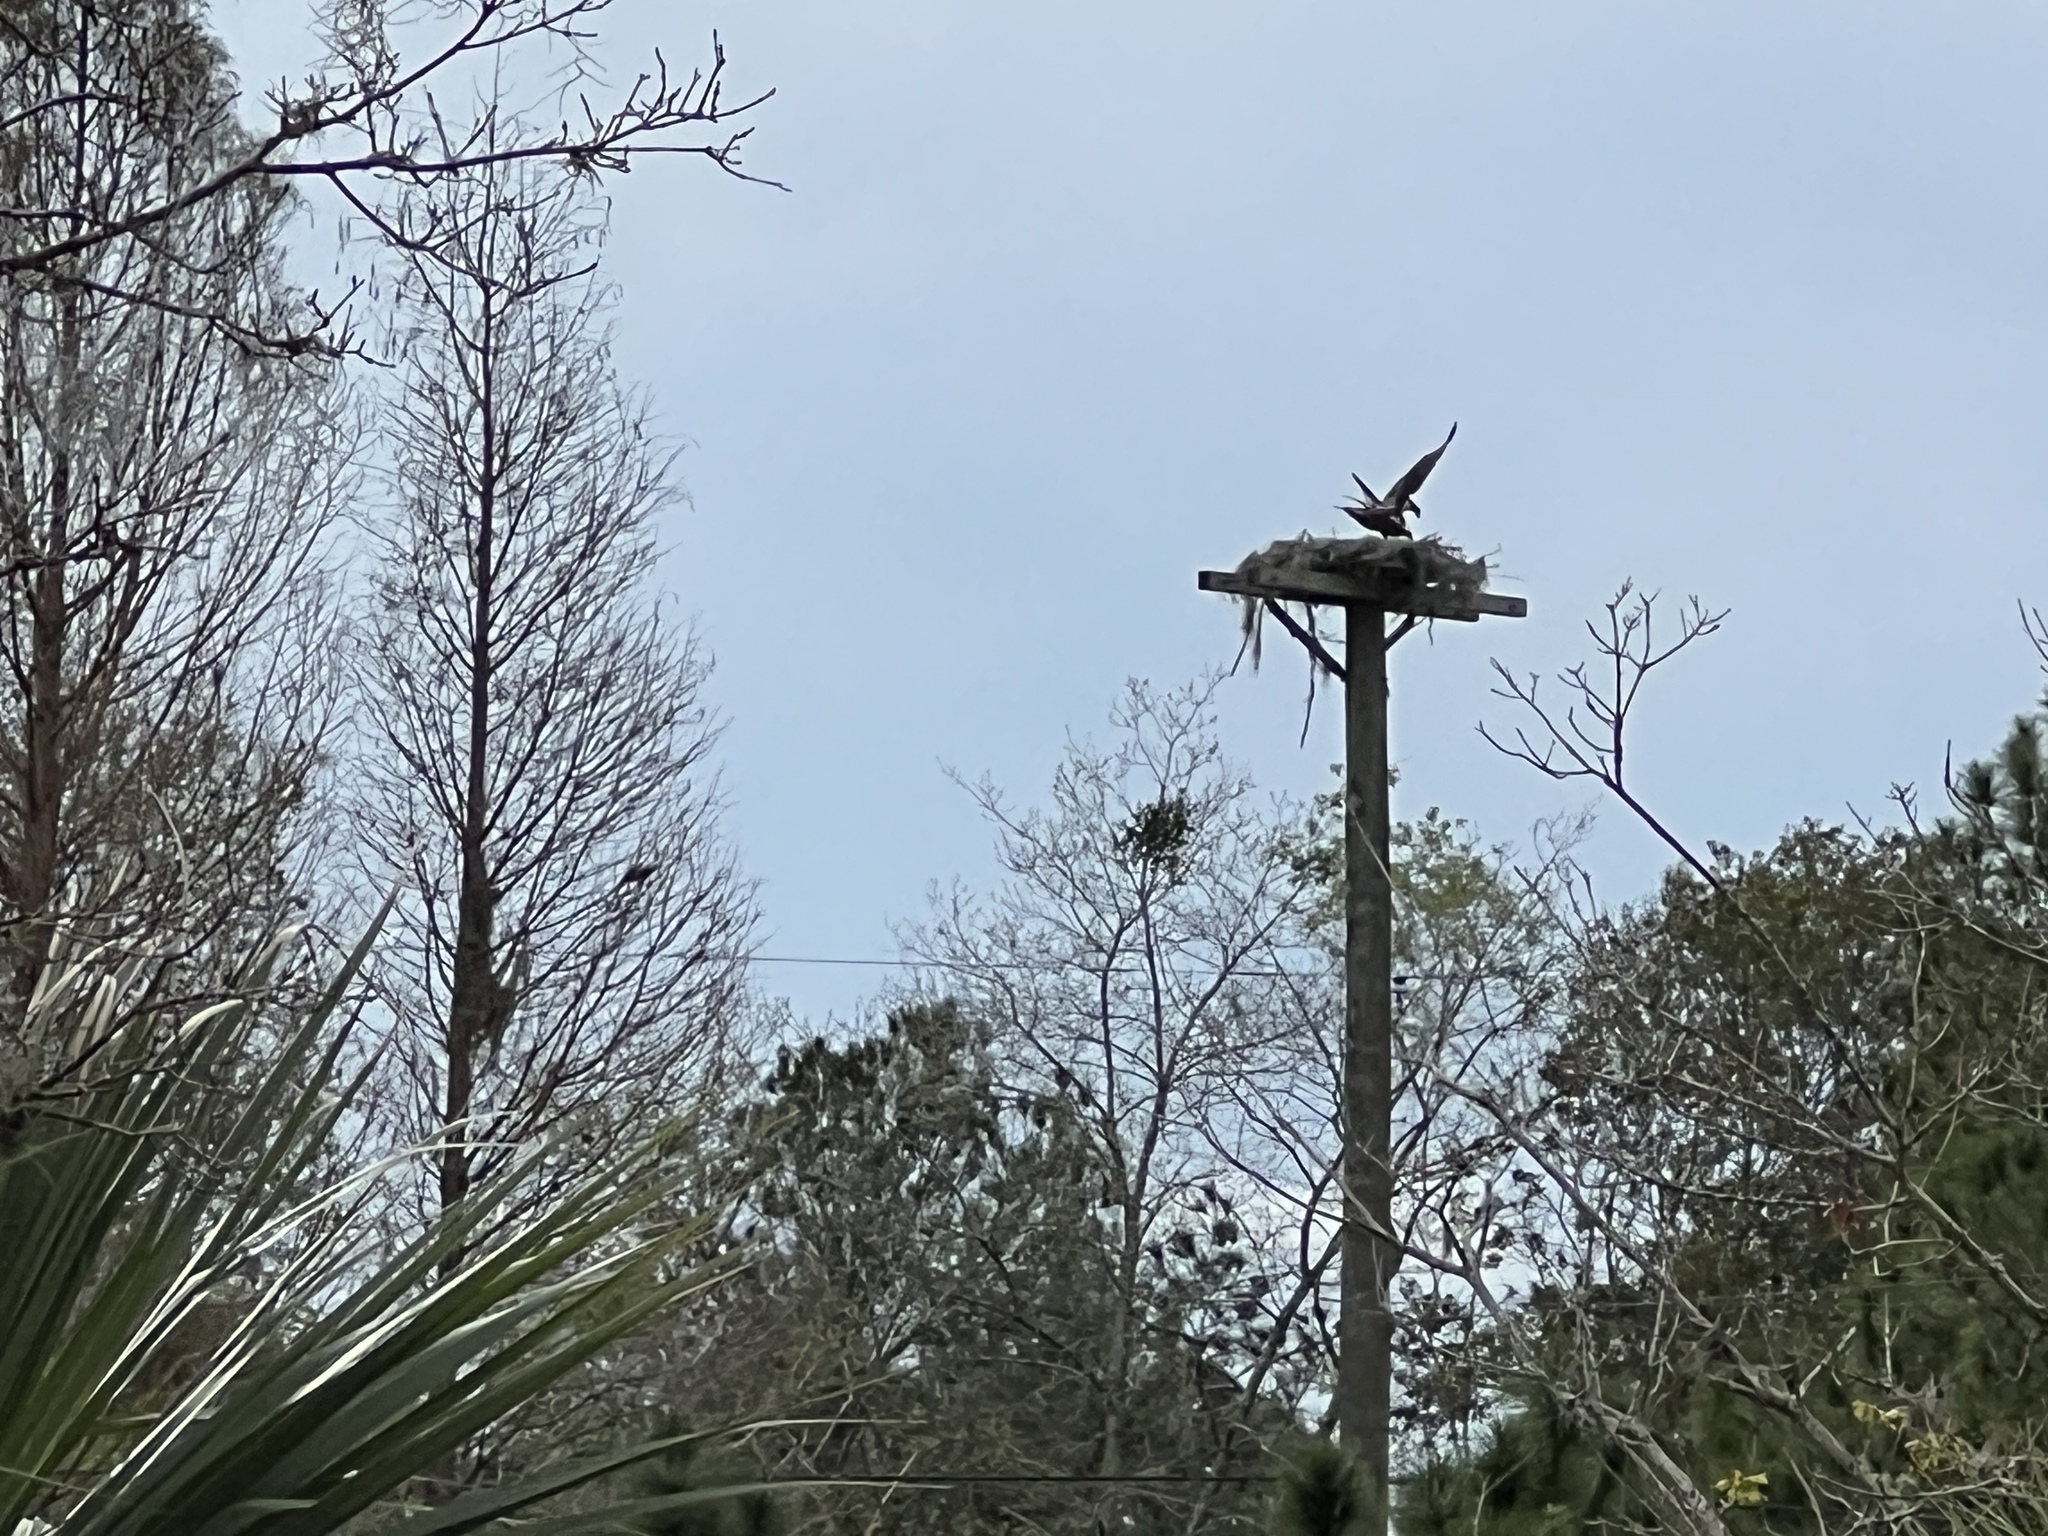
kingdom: Animalia
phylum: Chordata
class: Aves
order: Accipitriformes
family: Pandionidae
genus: Pandion
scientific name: Pandion haliaetus
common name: Osprey
